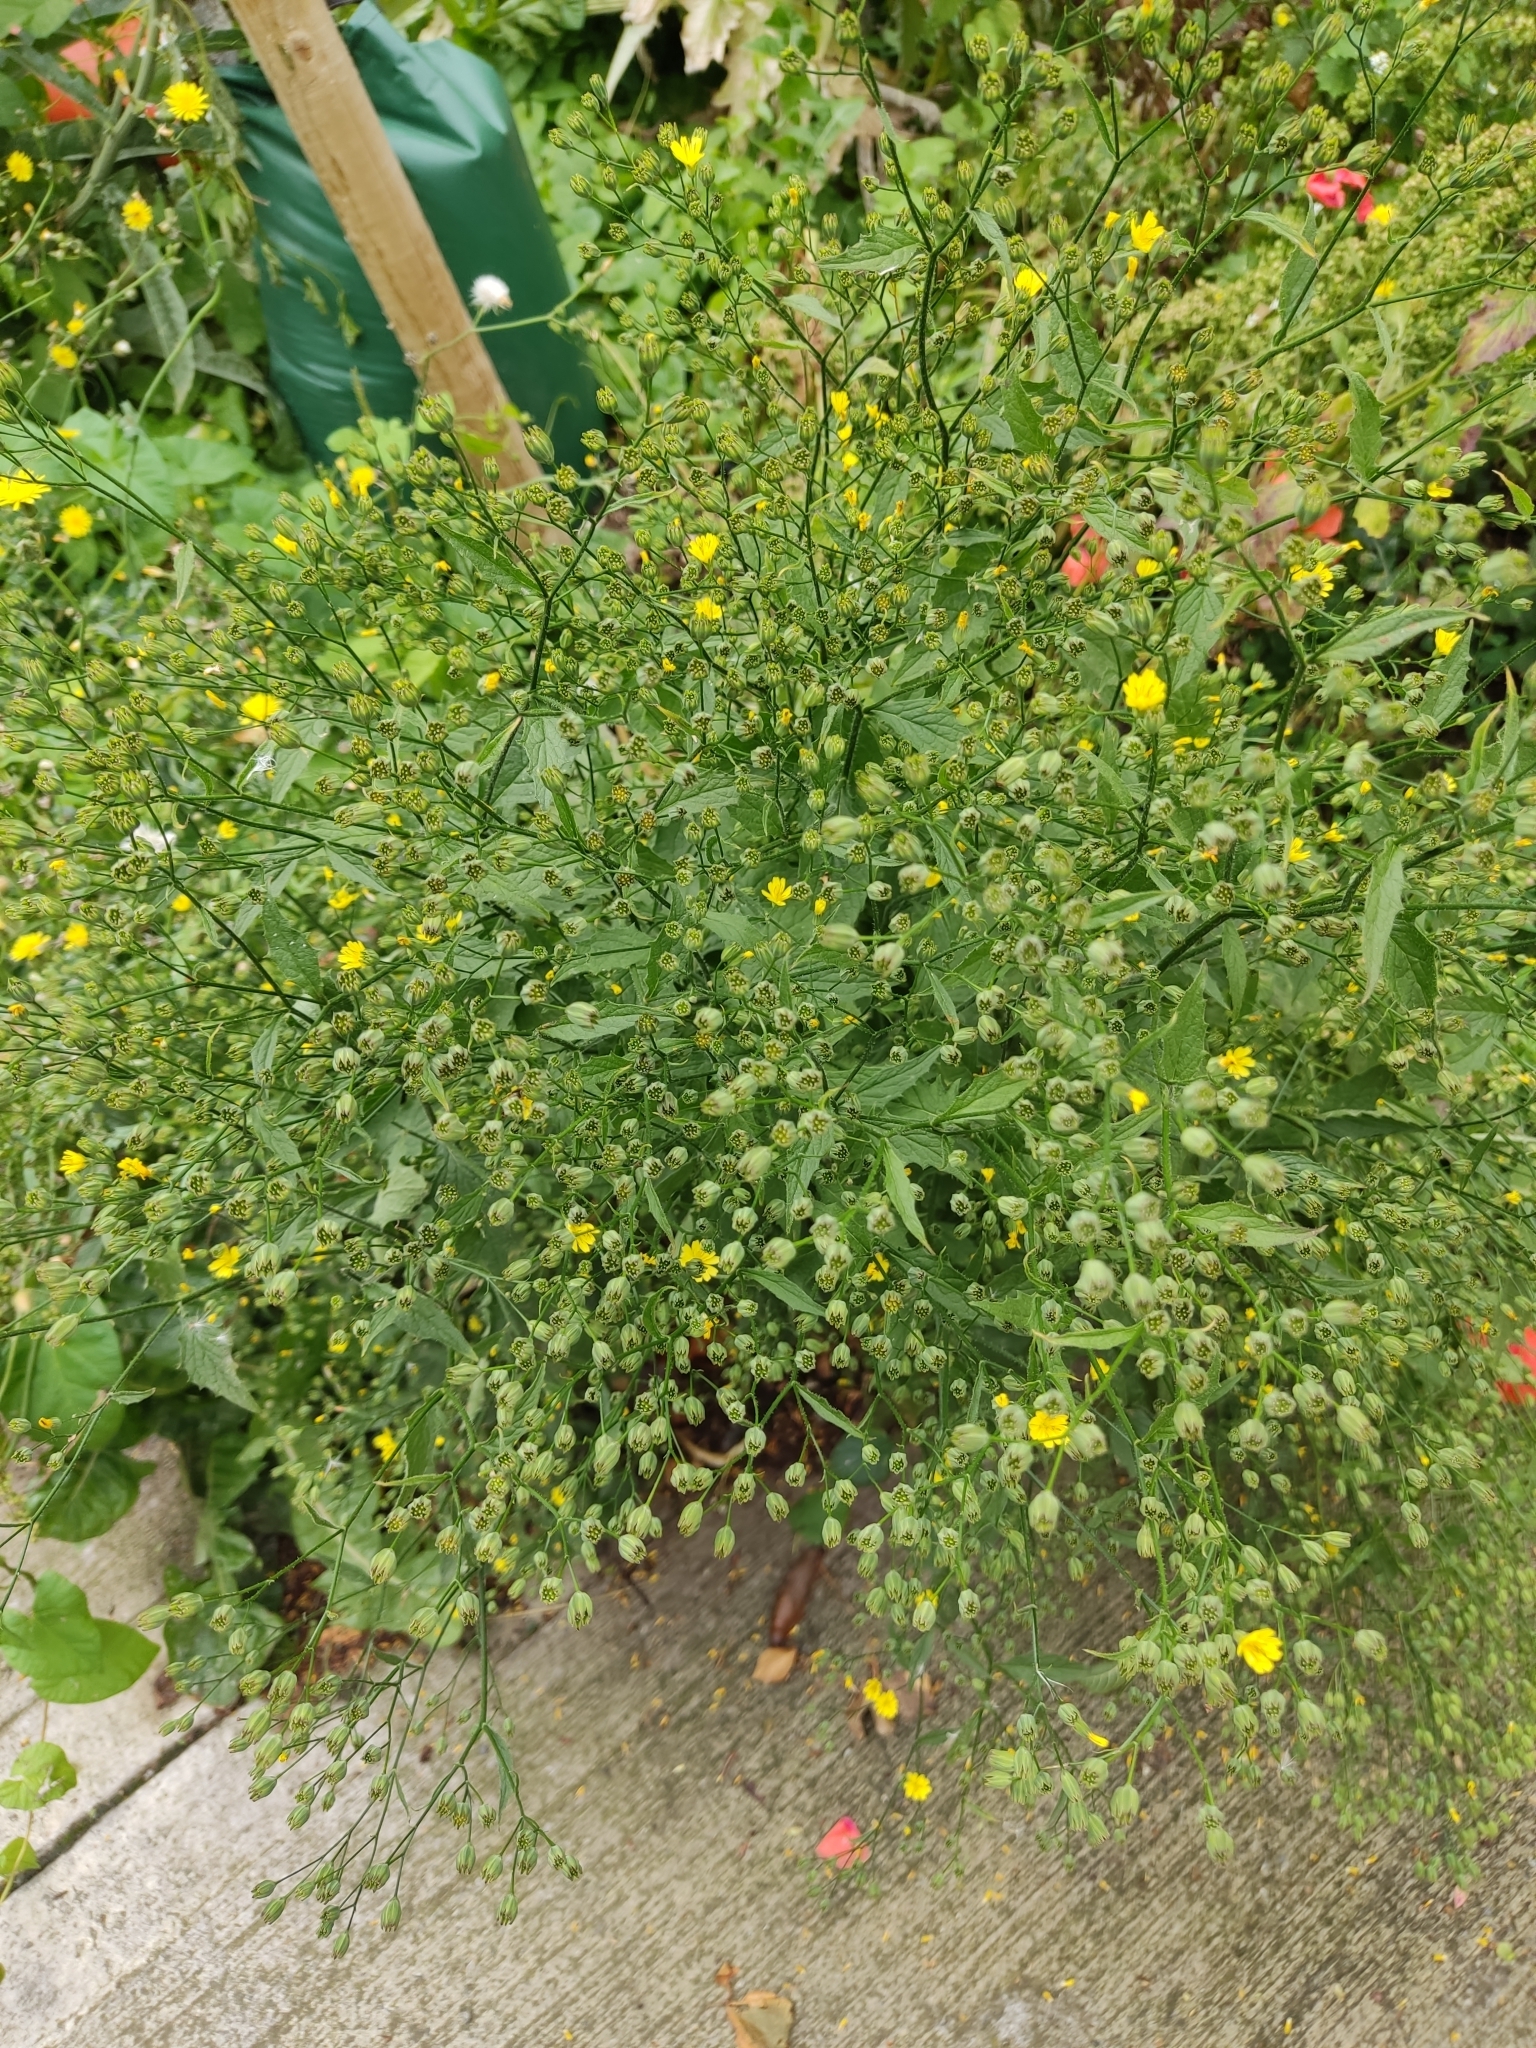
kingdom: Plantae
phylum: Tracheophyta
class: Magnoliopsida
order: Asterales
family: Asteraceae
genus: Lapsana
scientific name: Lapsana communis
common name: Nipplewort
